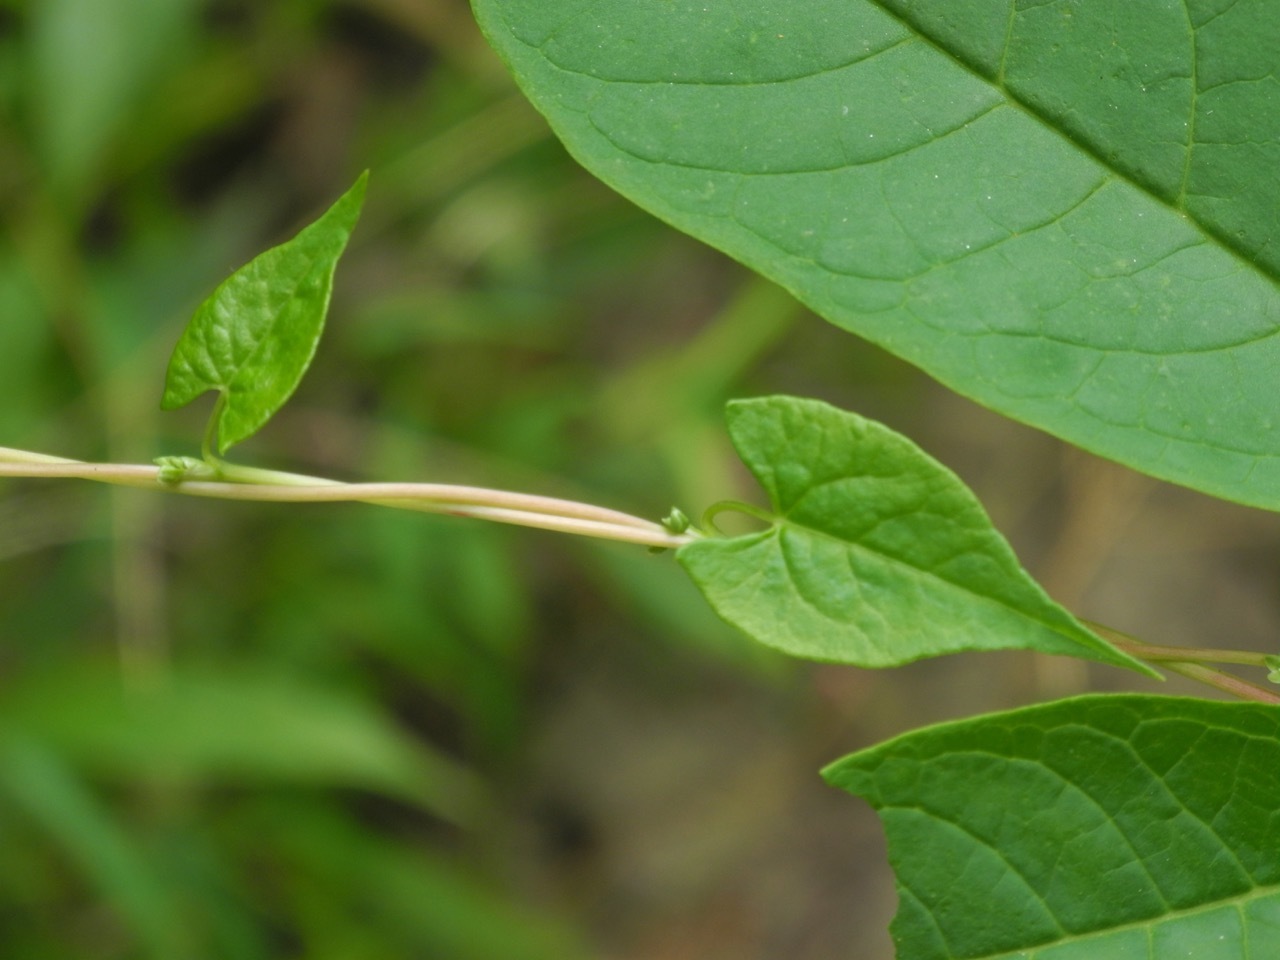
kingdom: Plantae
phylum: Tracheophyta
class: Magnoliopsida
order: Caryophyllales
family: Polygonaceae
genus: Fallopia
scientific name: Fallopia scandens
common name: Climbing false buckwheat
